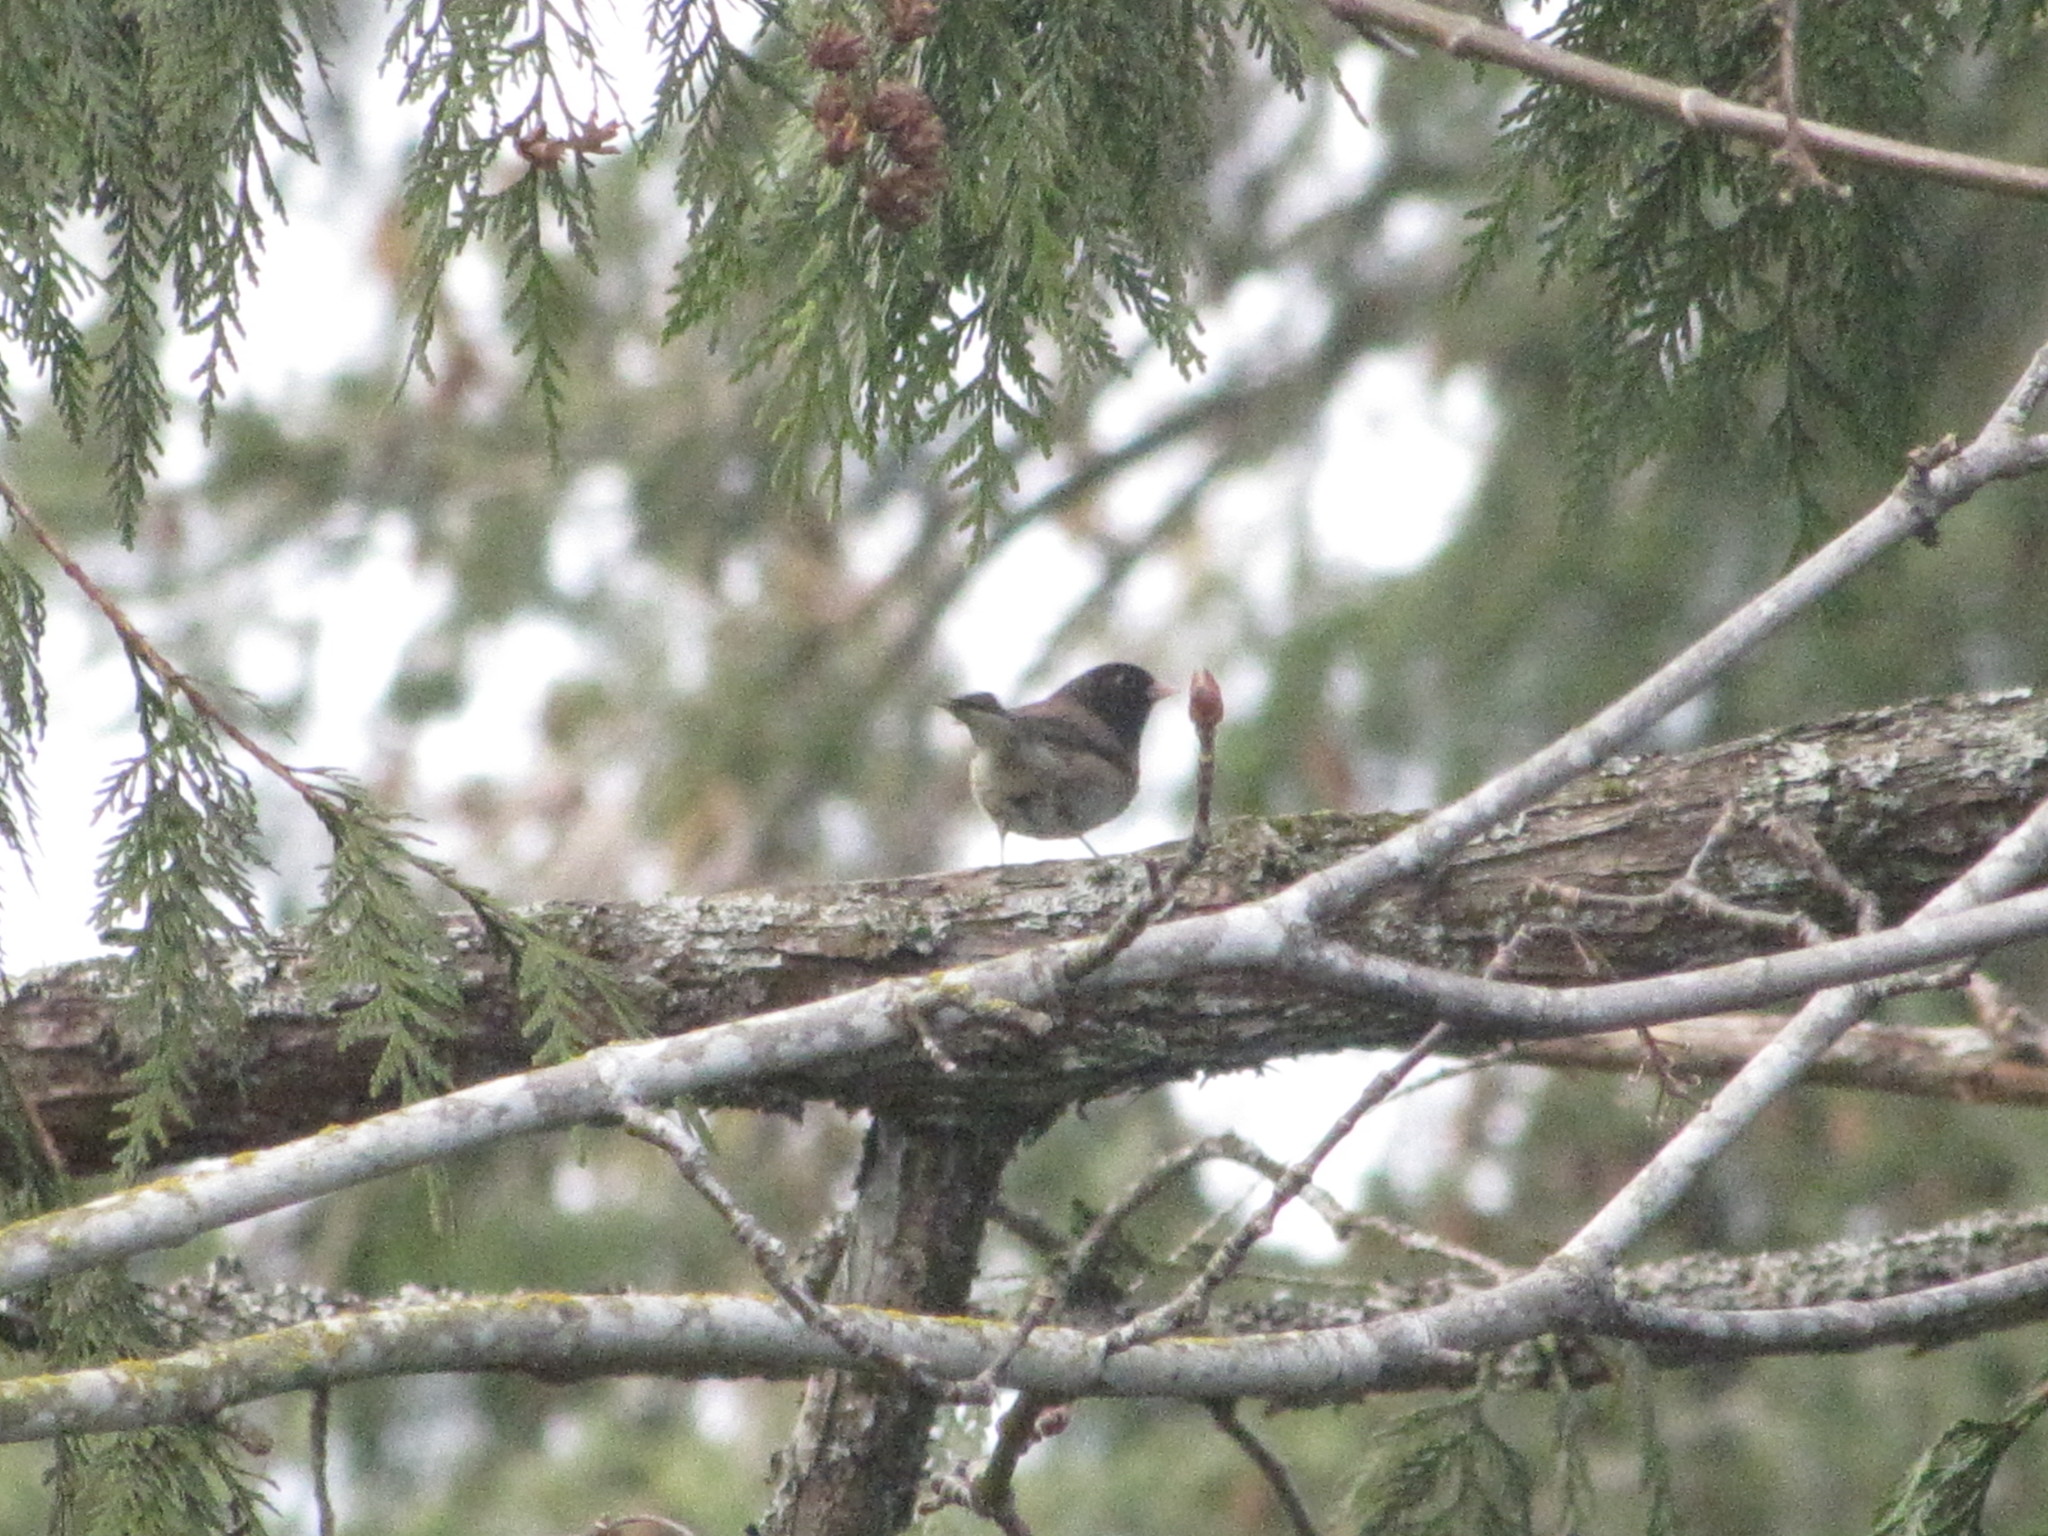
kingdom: Animalia
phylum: Chordata
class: Aves
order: Passeriformes
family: Passerellidae
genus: Junco
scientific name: Junco hyemalis
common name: Dark-eyed junco
